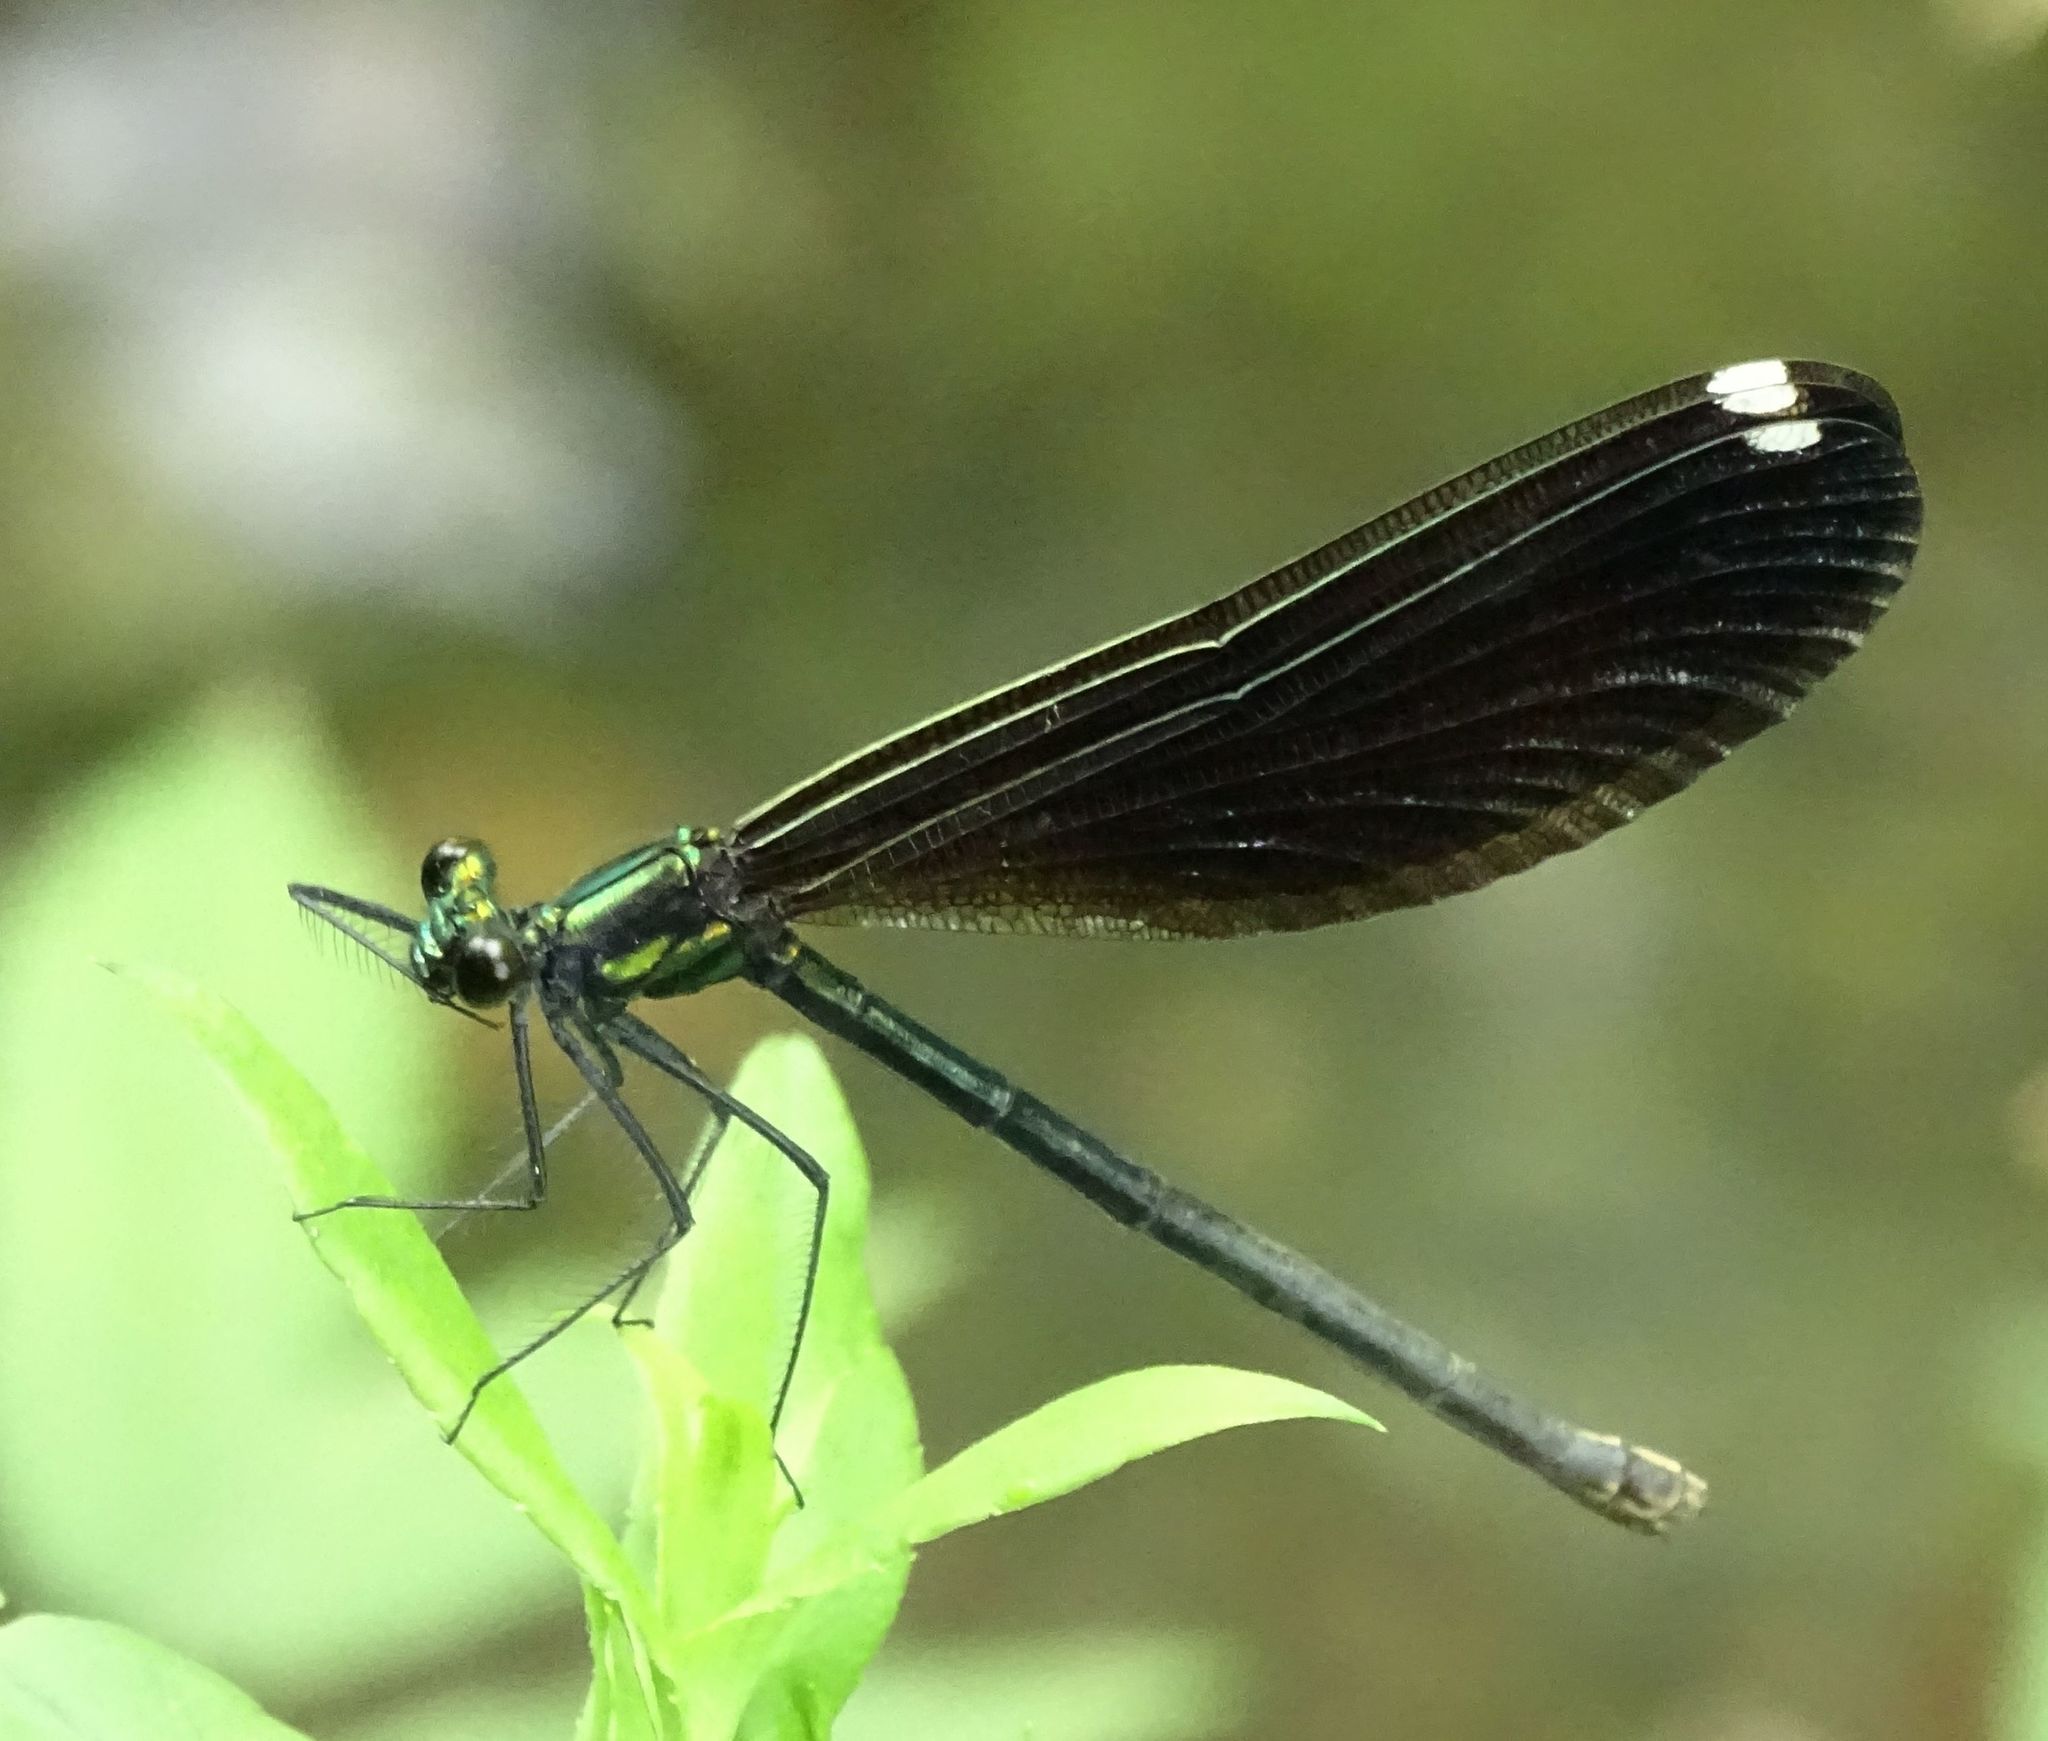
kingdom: Animalia
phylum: Arthropoda
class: Insecta
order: Odonata
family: Calopterygidae
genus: Calopteryx
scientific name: Calopteryx maculata
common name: Ebony jewelwing
